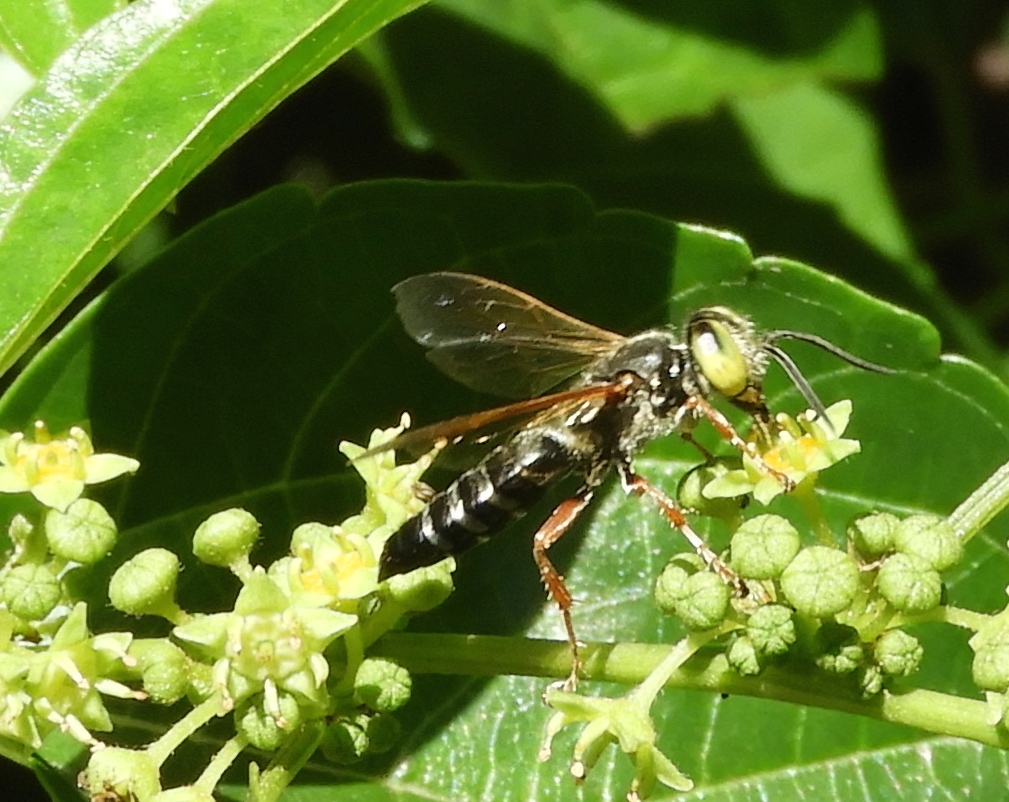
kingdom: Animalia
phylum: Arthropoda
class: Insecta
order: Hymenoptera
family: Crabronidae
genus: Tachytes
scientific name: Tachytes
